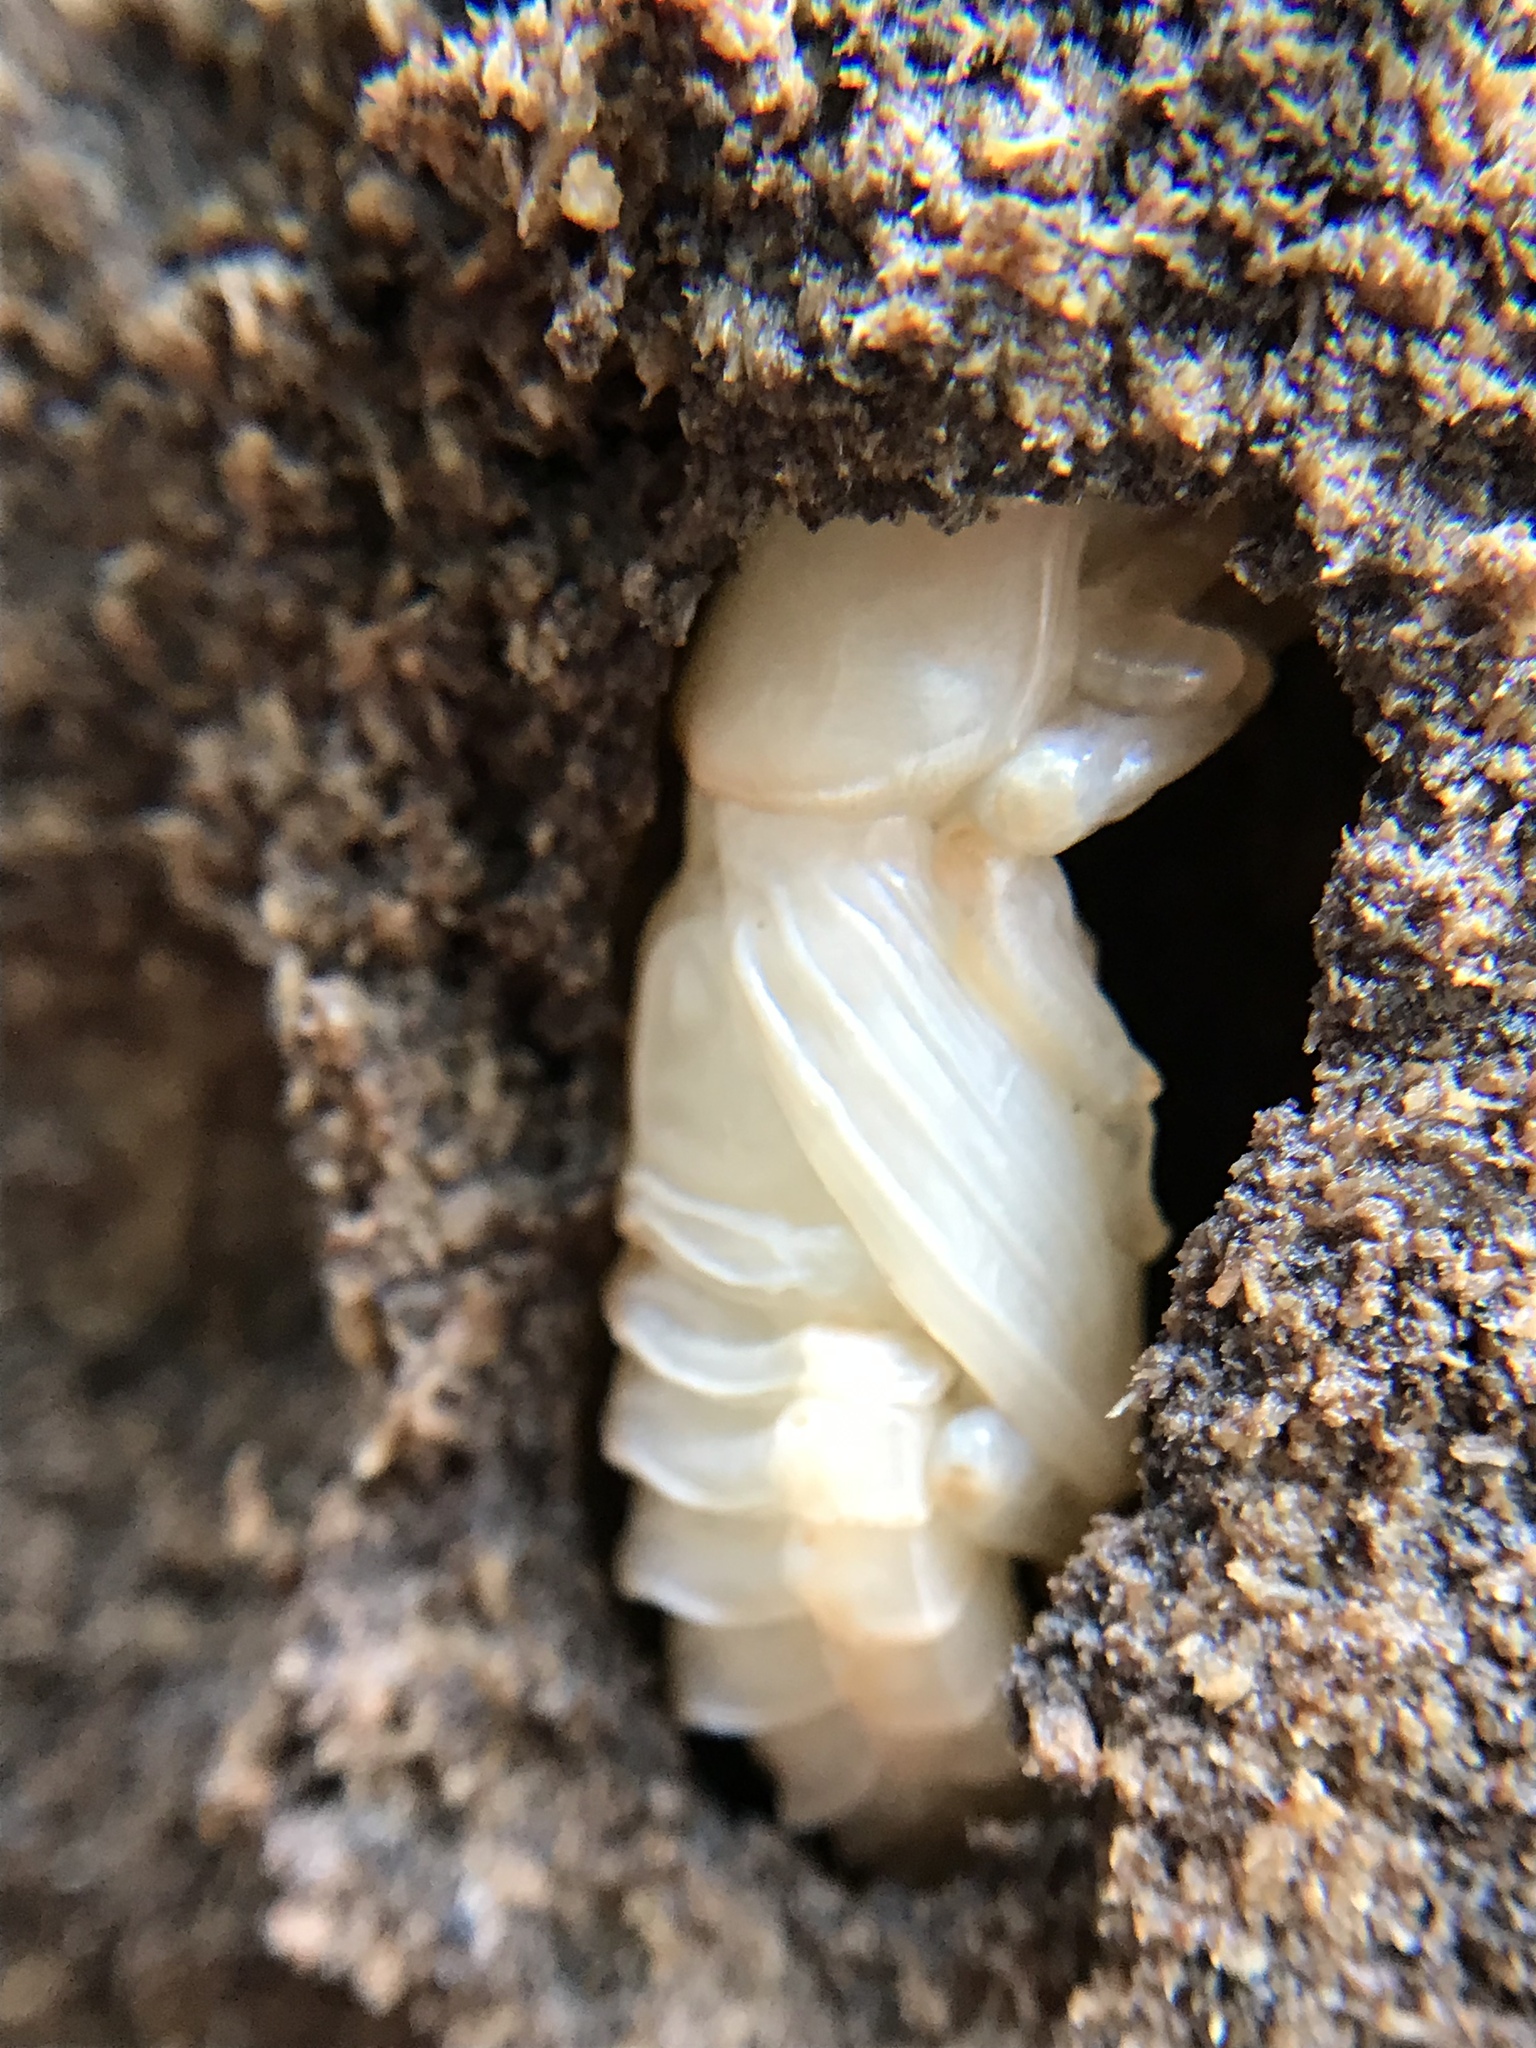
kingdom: Animalia
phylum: Arthropoda
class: Insecta
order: Coleoptera
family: Passalidae
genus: Odontotaenius
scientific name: Odontotaenius disjunctus
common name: Patent leather beetle
